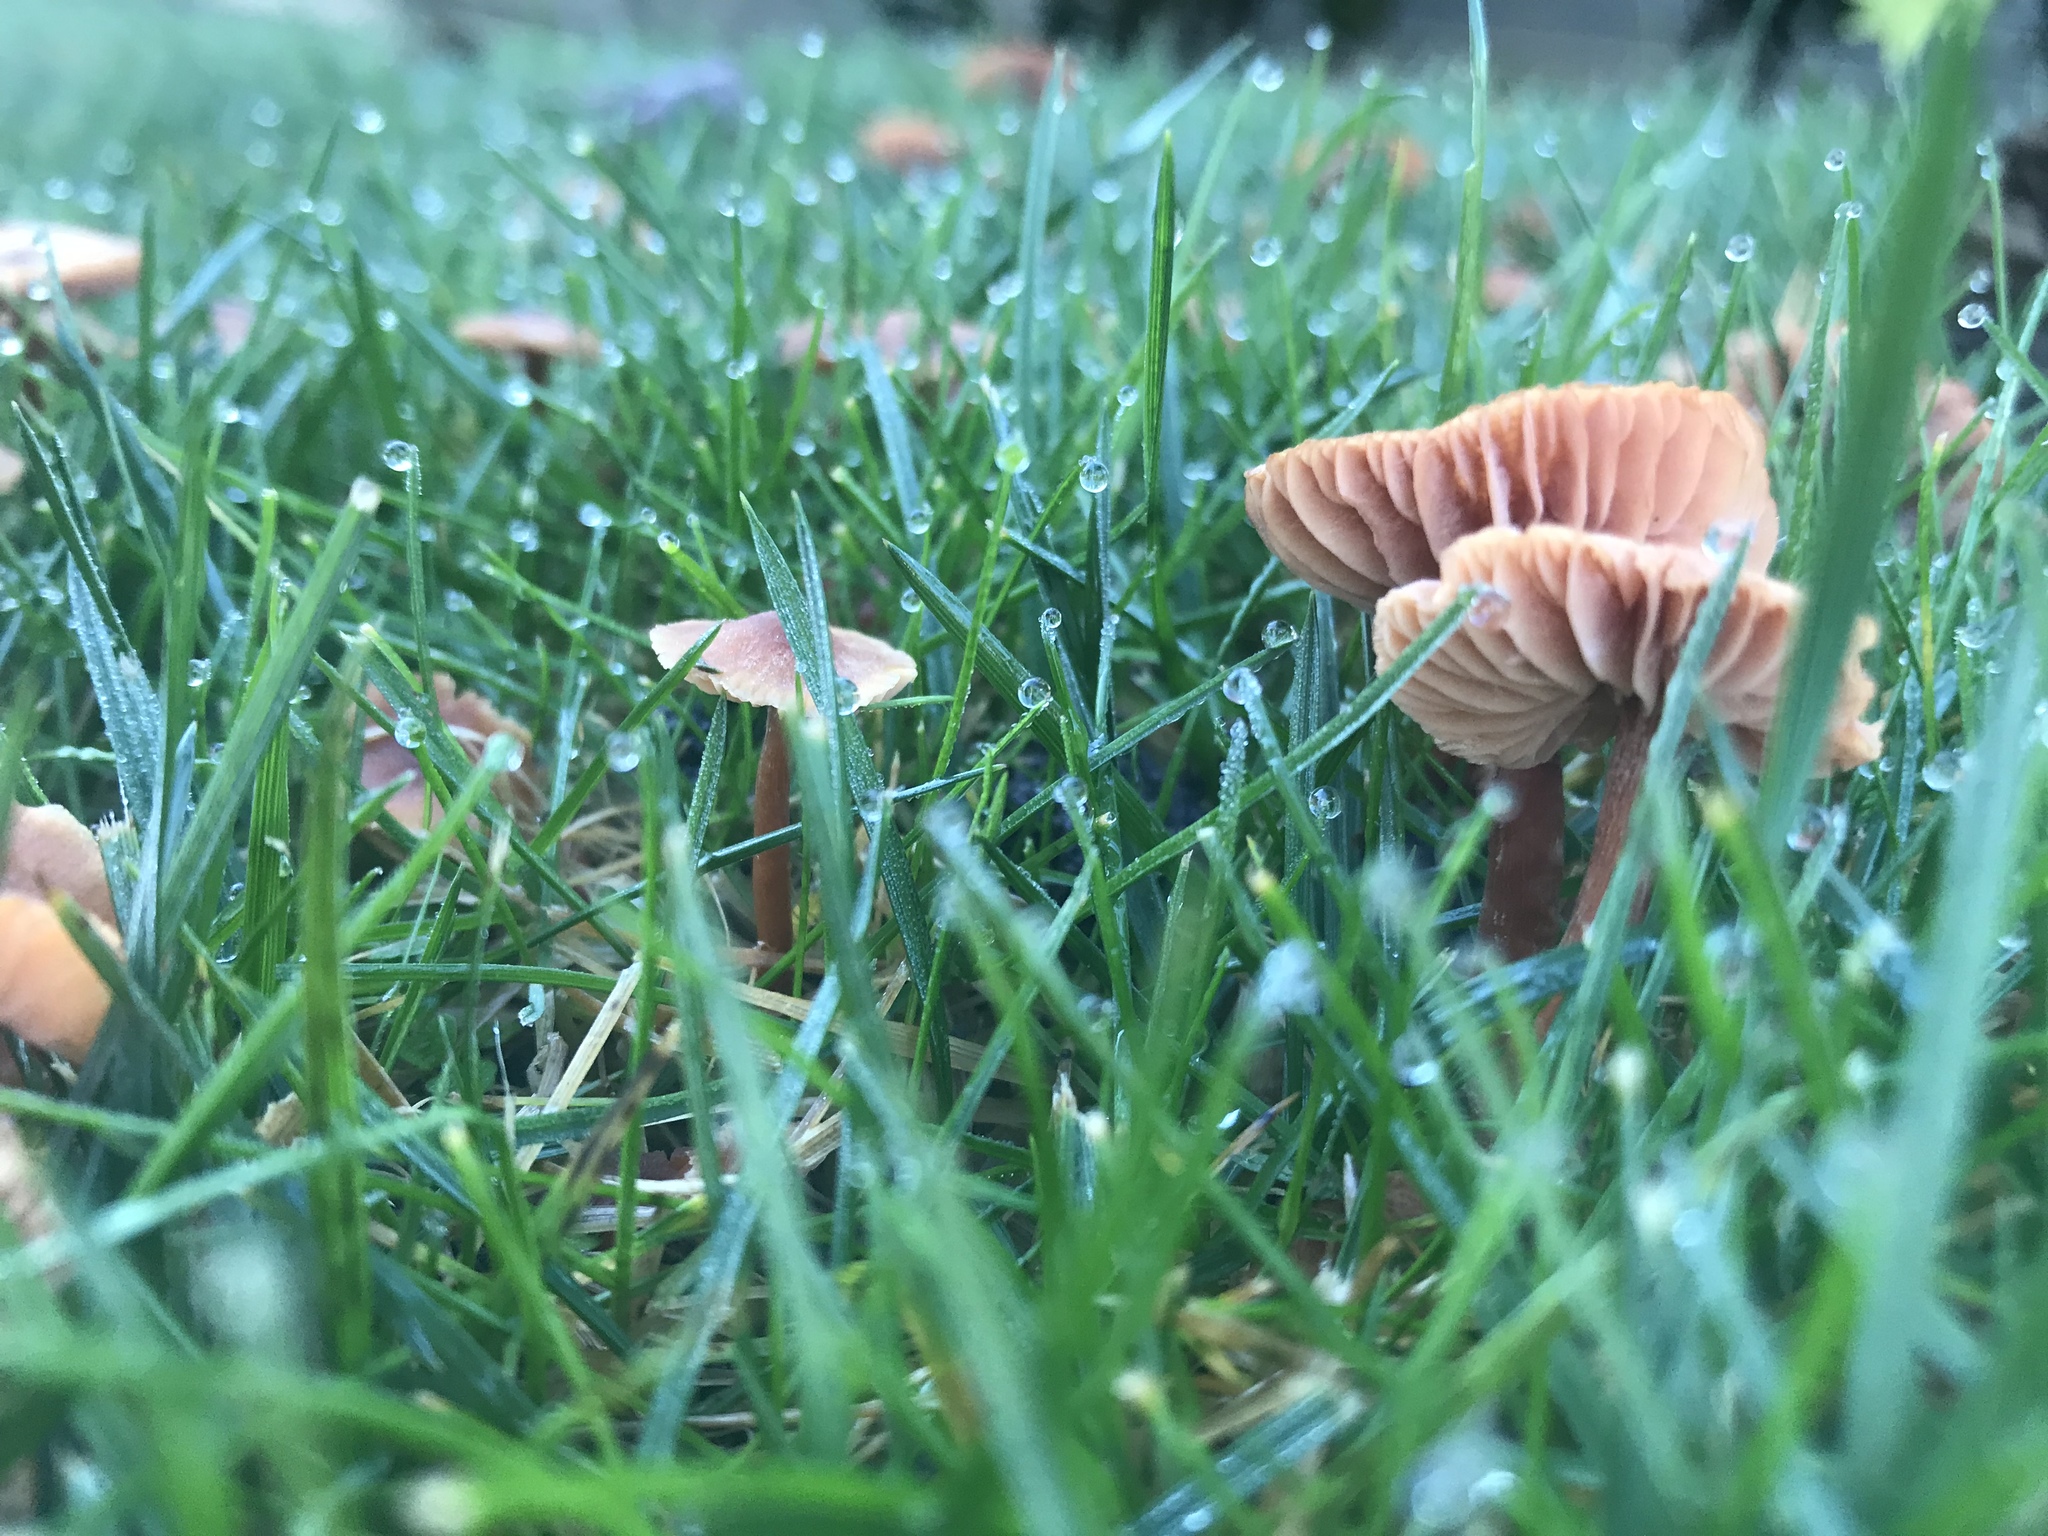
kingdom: Fungi
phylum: Basidiomycota
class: Agaricomycetes
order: Agaricales
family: Hydnangiaceae
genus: Laccaria
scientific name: Laccaria laccata
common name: Deceiver
